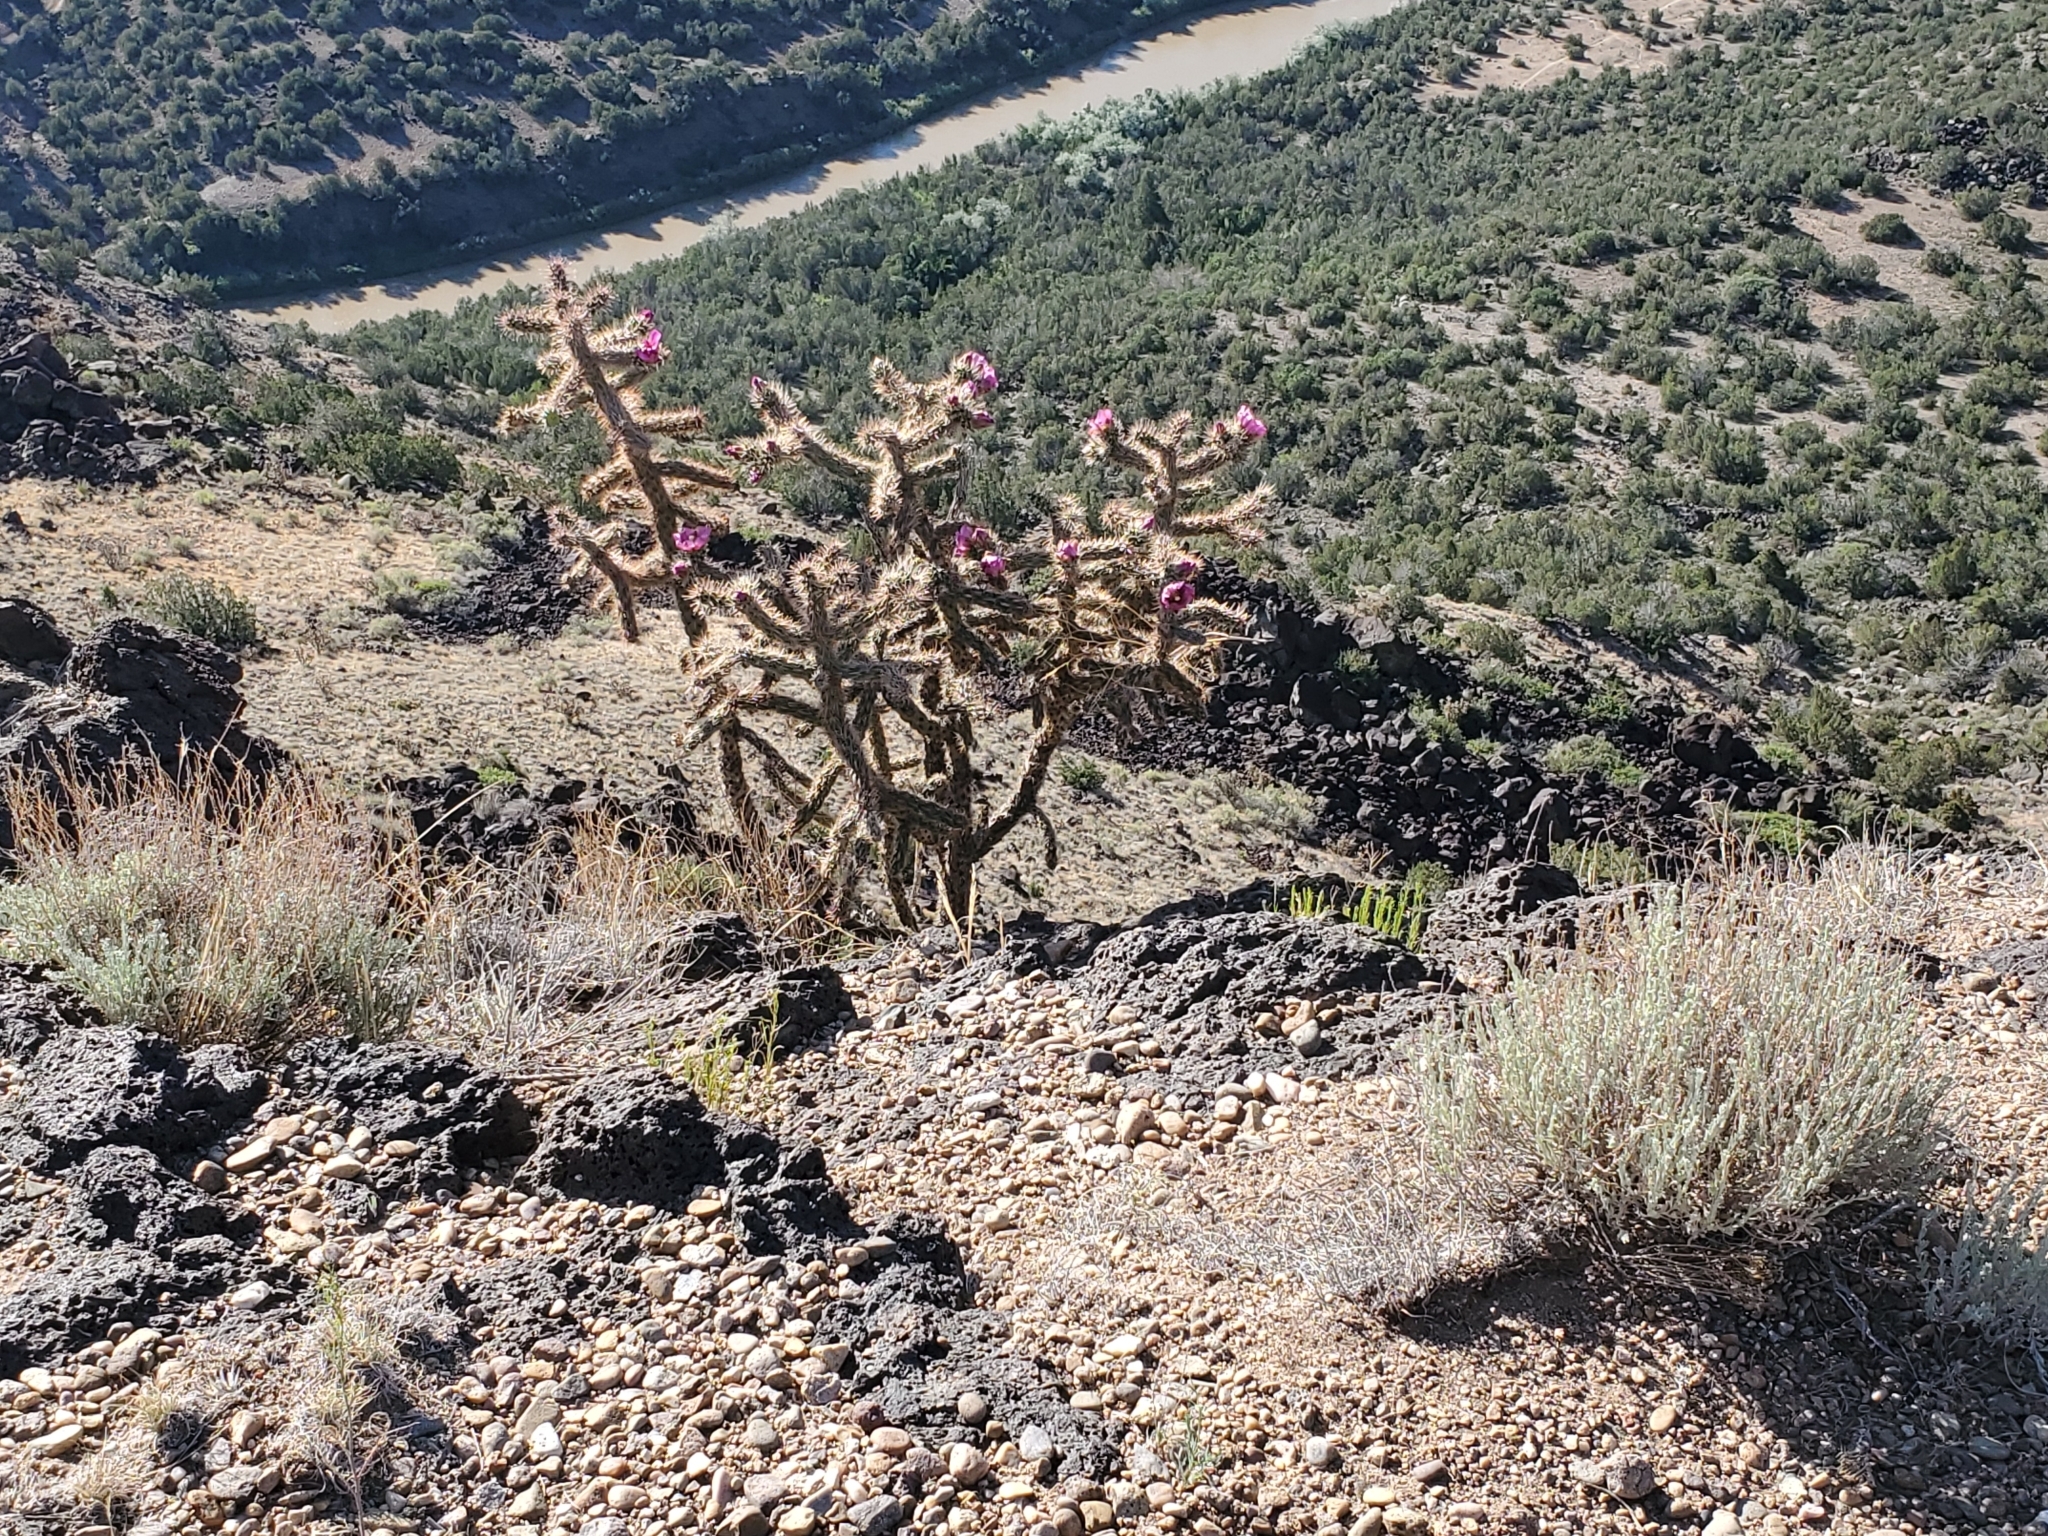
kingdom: Plantae
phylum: Tracheophyta
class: Magnoliopsida
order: Caryophyllales
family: Cactaceae
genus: Cylindropuntia
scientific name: Cylindropuntia imbricata
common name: Candelabrum cactus
